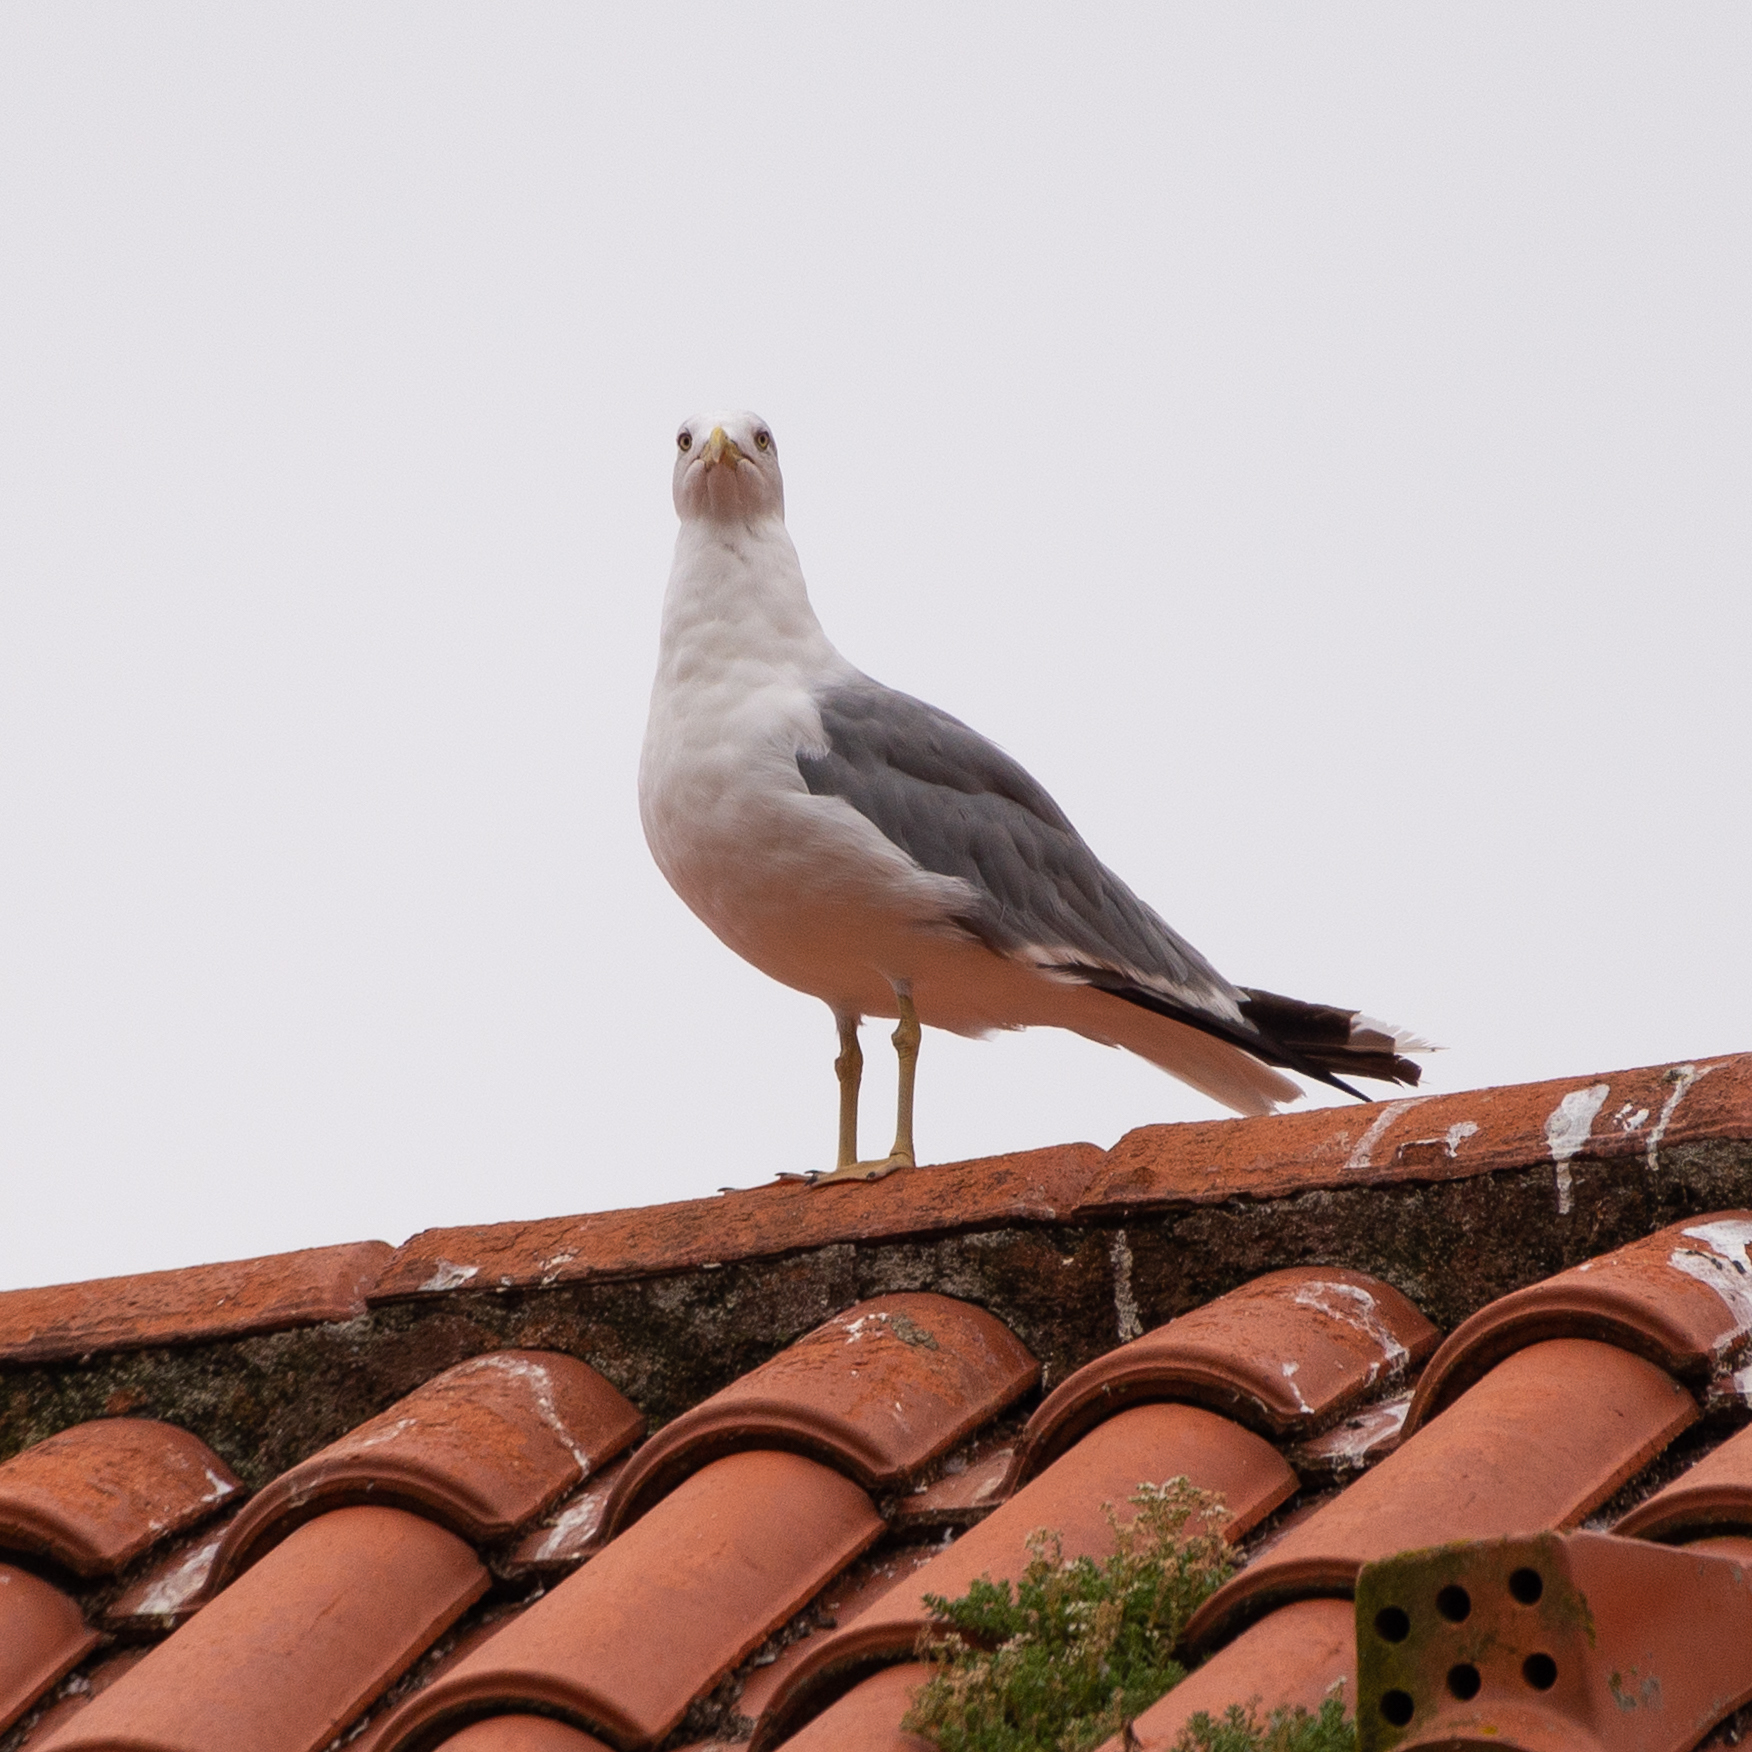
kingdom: Animalia
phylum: Chordata
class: Aves
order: Charadriiformes
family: Laridae
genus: Larus
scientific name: Larus michahellis
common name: Yellow-legged gull
